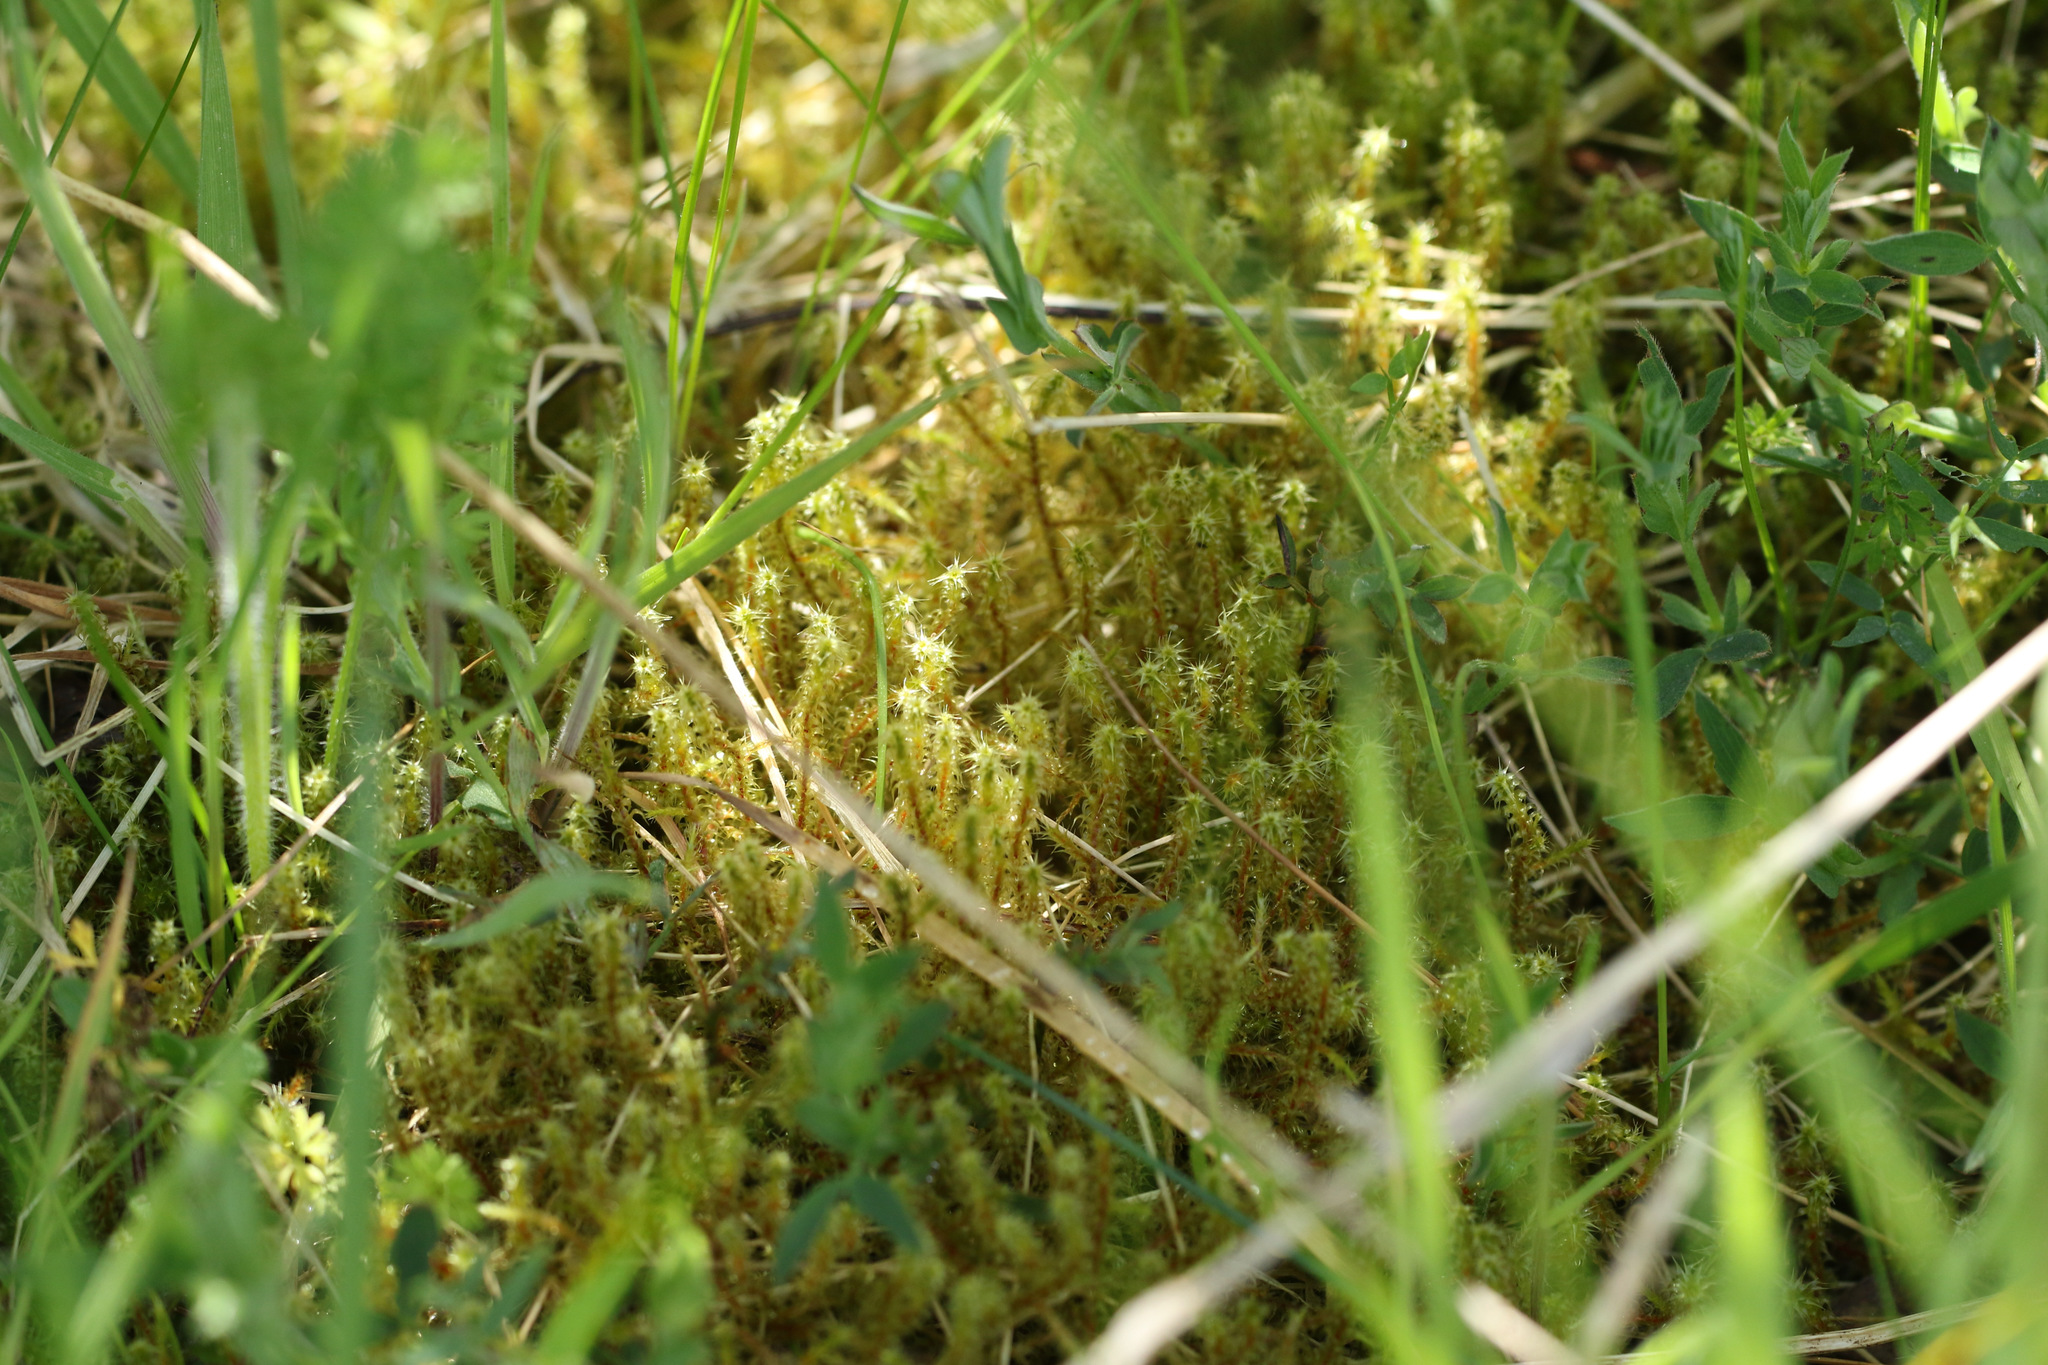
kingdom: Plantae
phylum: Bryophyta
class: Bryopsida
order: Hypnales
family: Hylocomiaceae
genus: Rhytidiadelphus
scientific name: Rhytidiadelphus squarrosus
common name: Springy turf-moss
